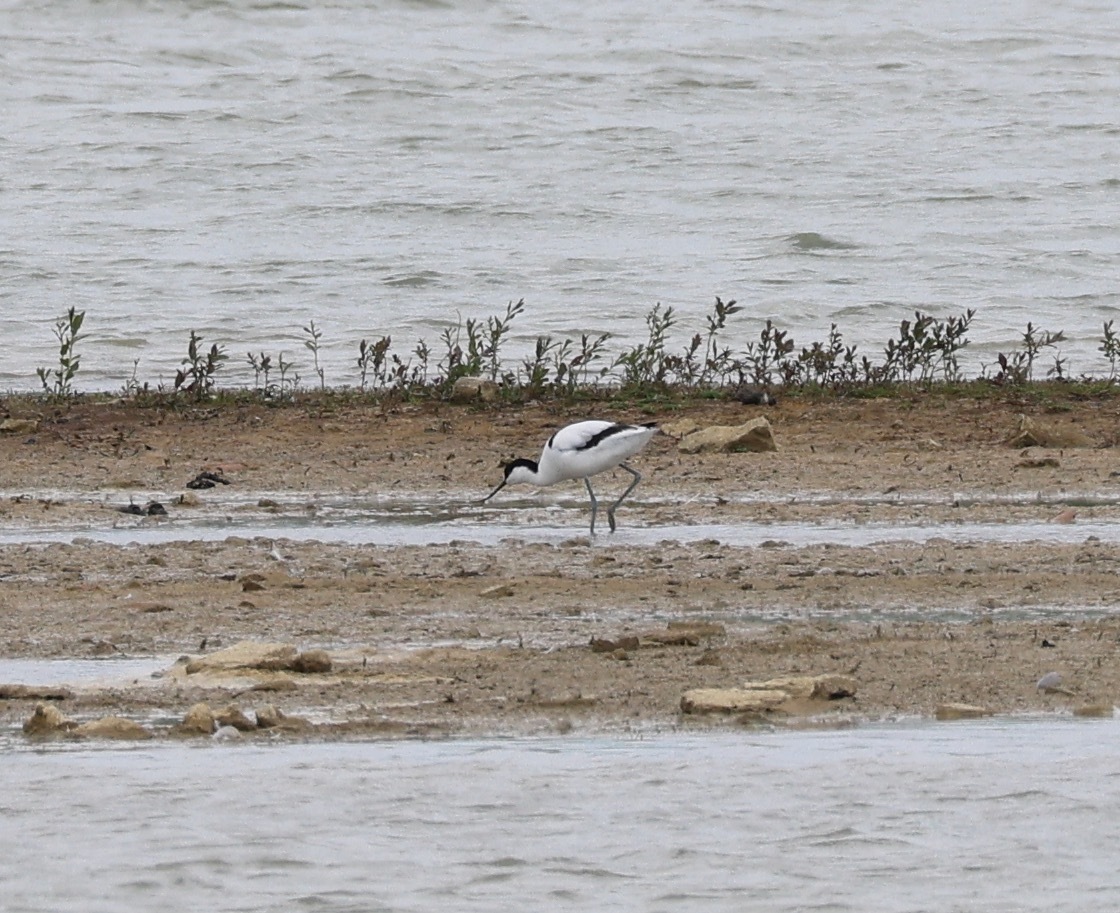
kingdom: Animalia
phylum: Chordata
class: Aves
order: Charadriiformes
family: Recurvirostridae
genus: Recurvirostra
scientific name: Recurvirostra avosetta
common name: Pied avocet
